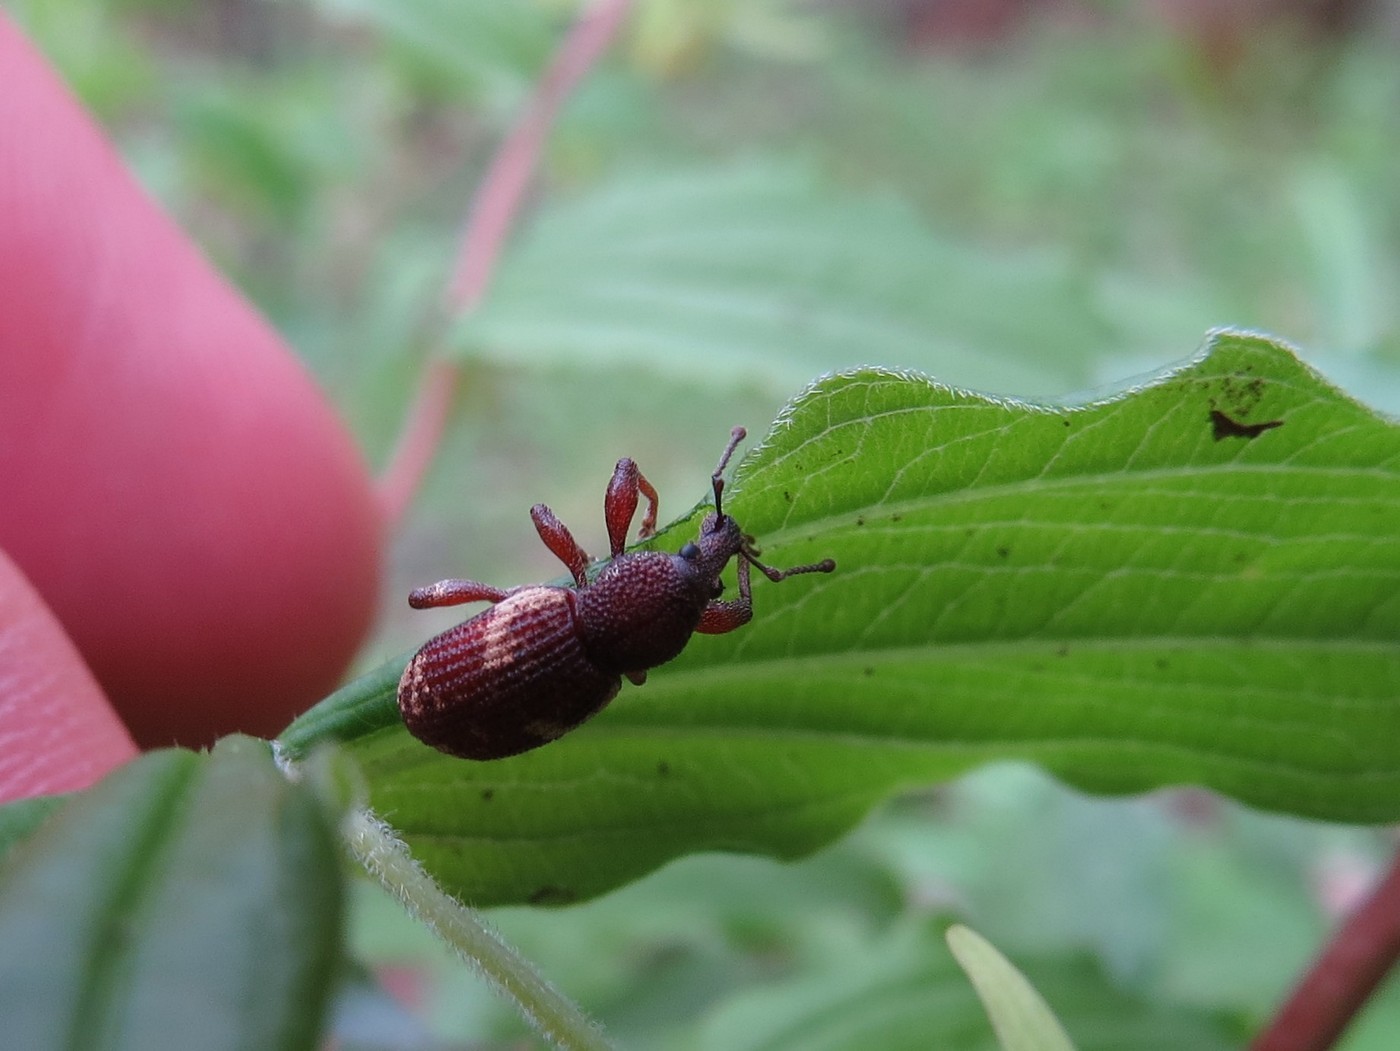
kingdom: Animalia
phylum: Arthropoda
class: Insecta
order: Coleoptera
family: Curculionidae
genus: Hormorus
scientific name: Hormorus undulatus
